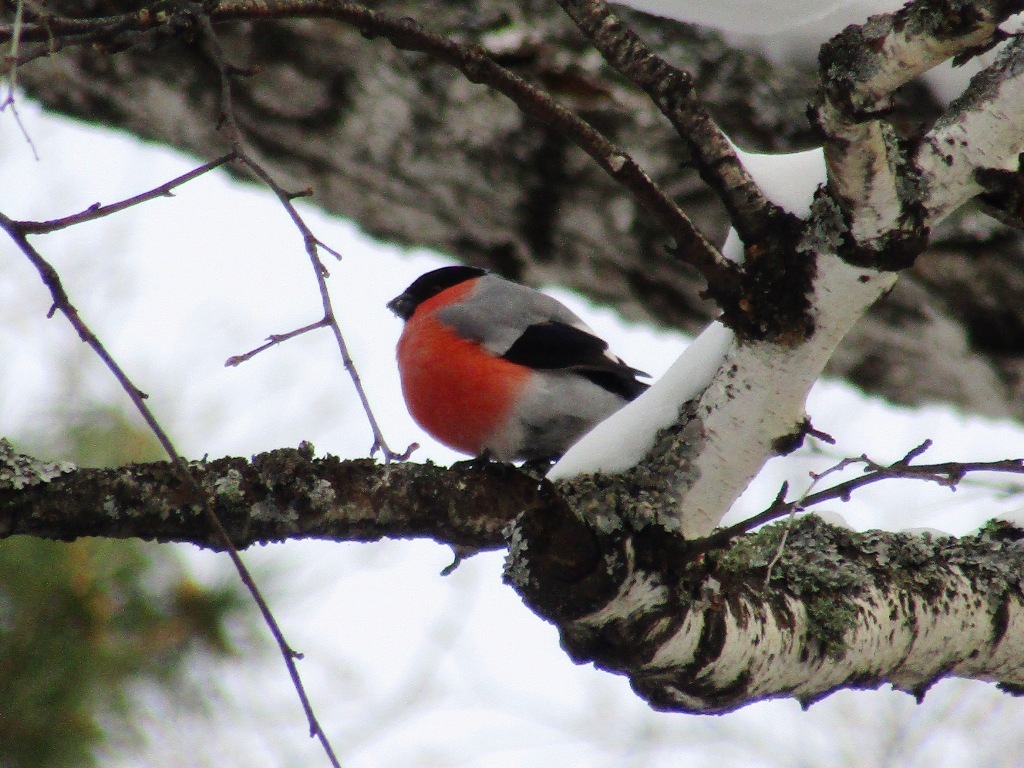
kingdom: Animalia
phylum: Chordata
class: Aves
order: Passeriformes
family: Fringillidae
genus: Pyrrhula
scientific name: Pyrrhula pyrrhula
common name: Eurasian bullfinch
